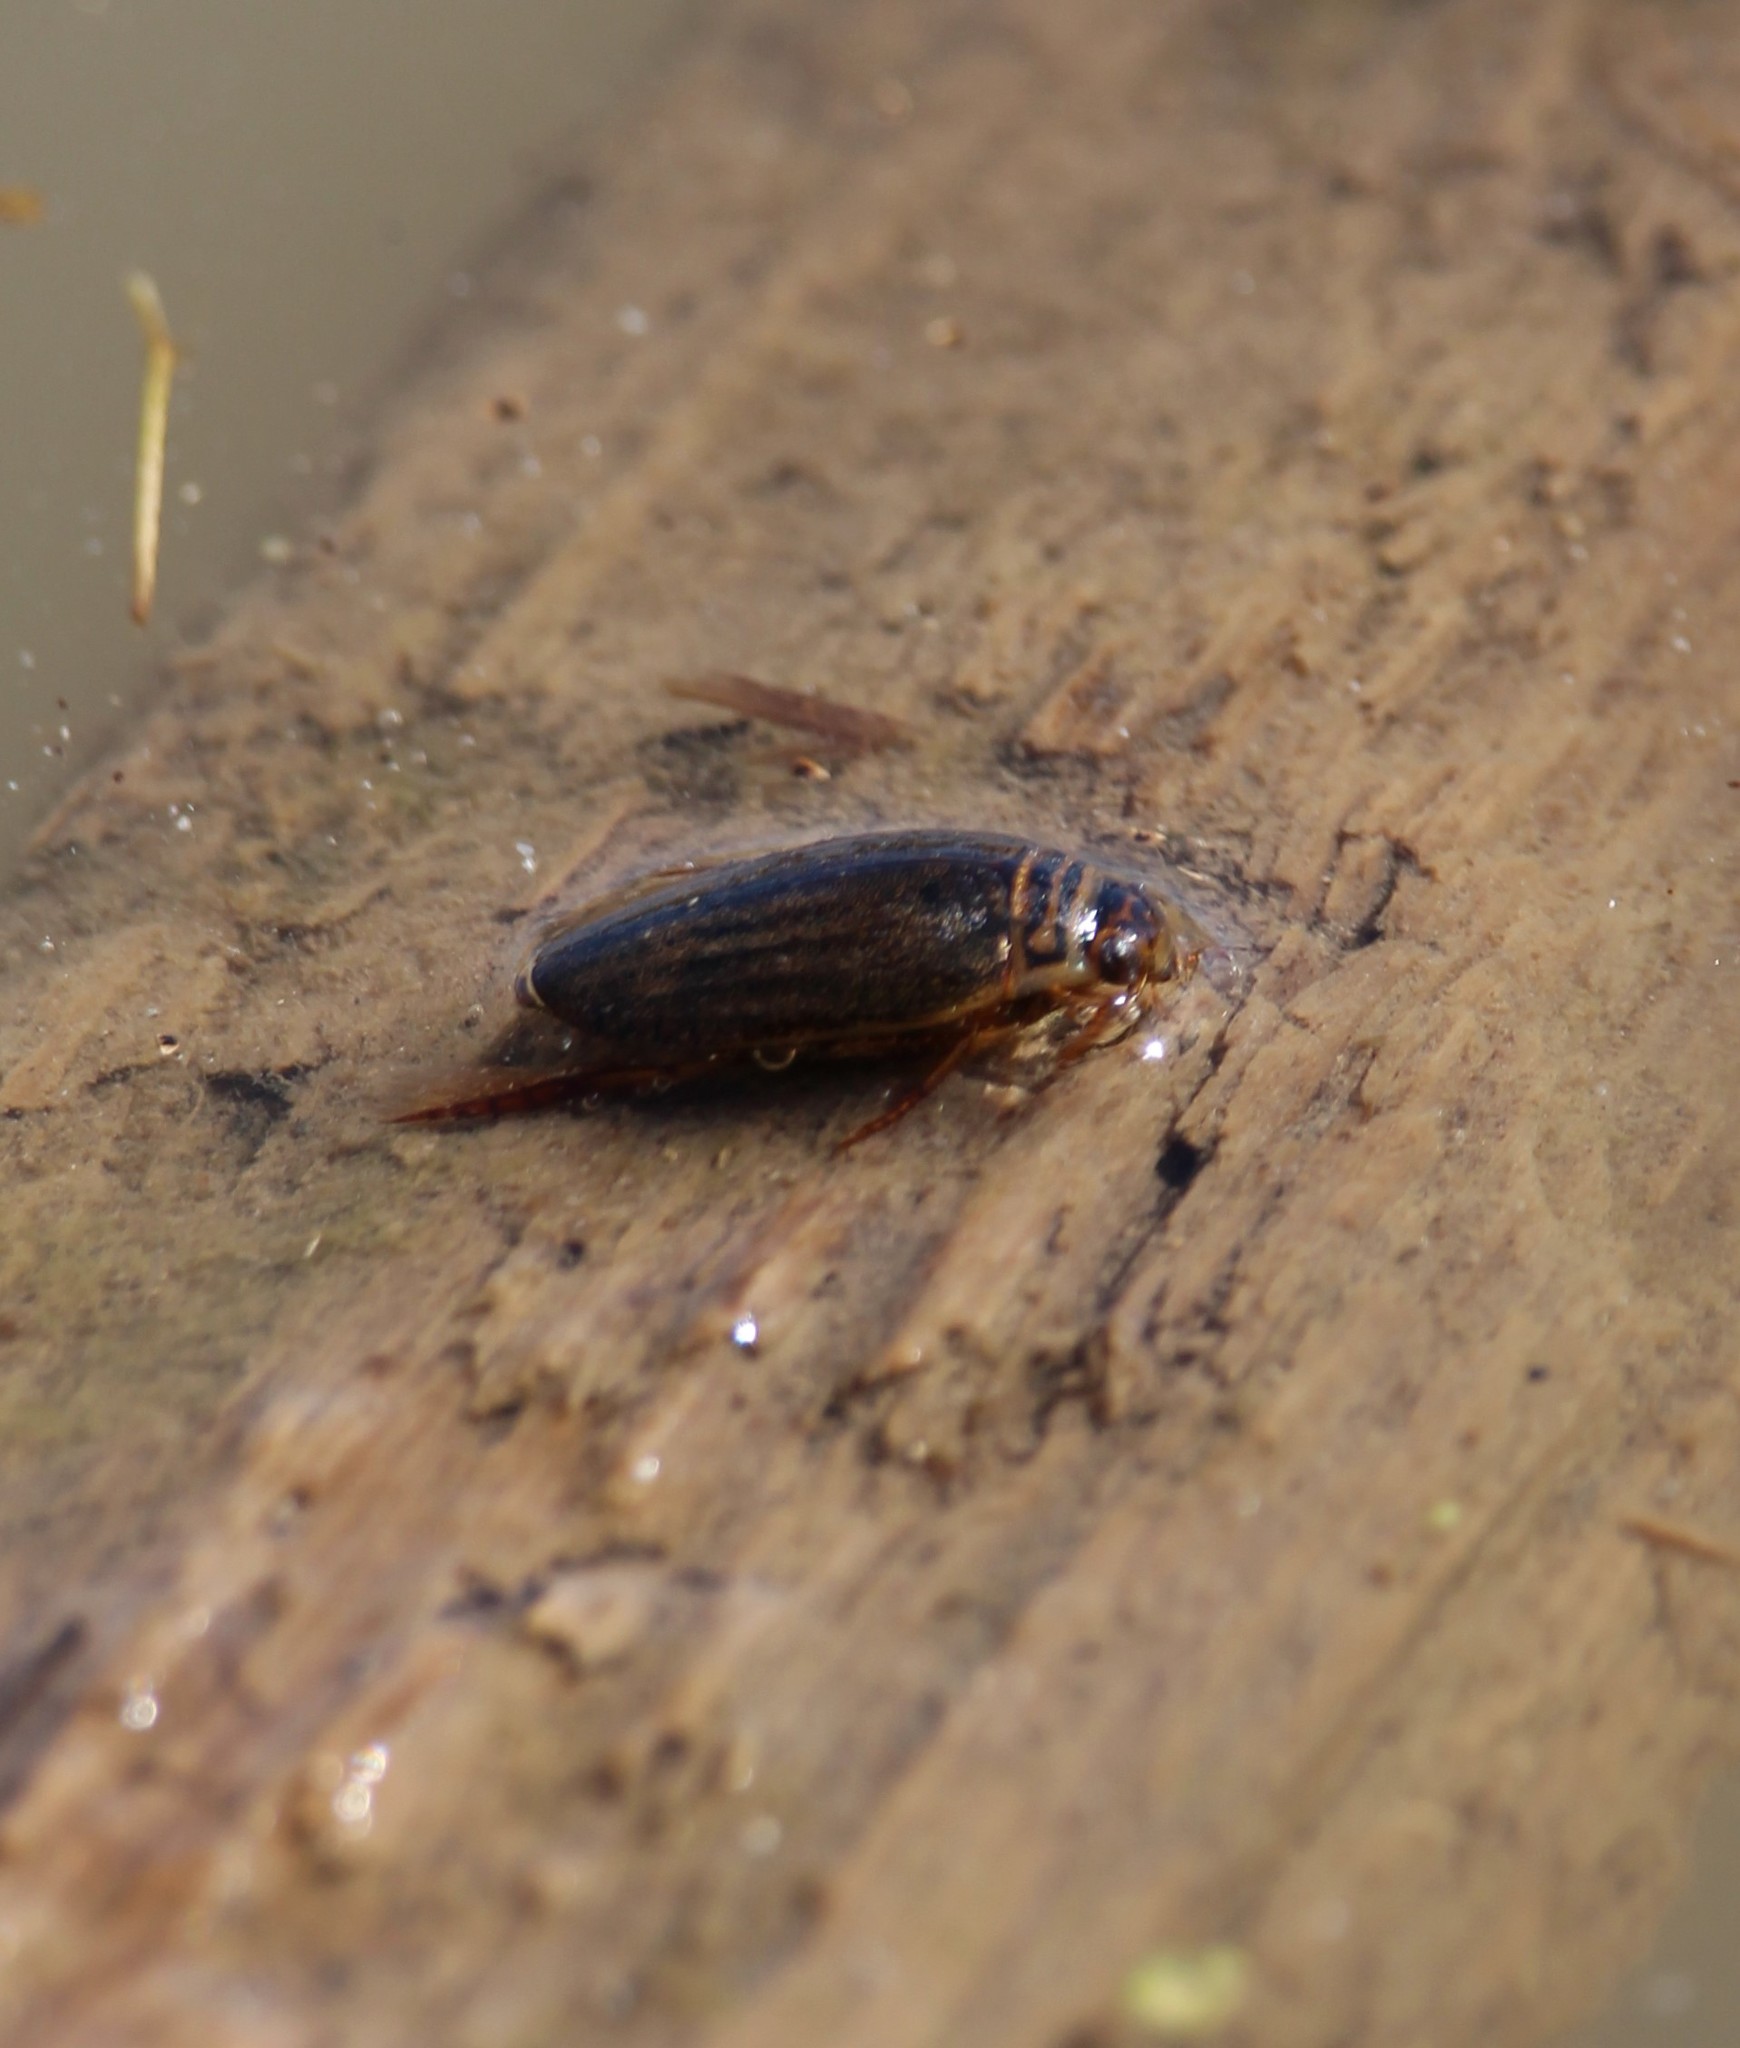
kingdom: Animalia
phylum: Arthropoda
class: Insecta
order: Coleoptera
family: Dytiscidae
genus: Acilius
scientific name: Acilius semisulcatus
